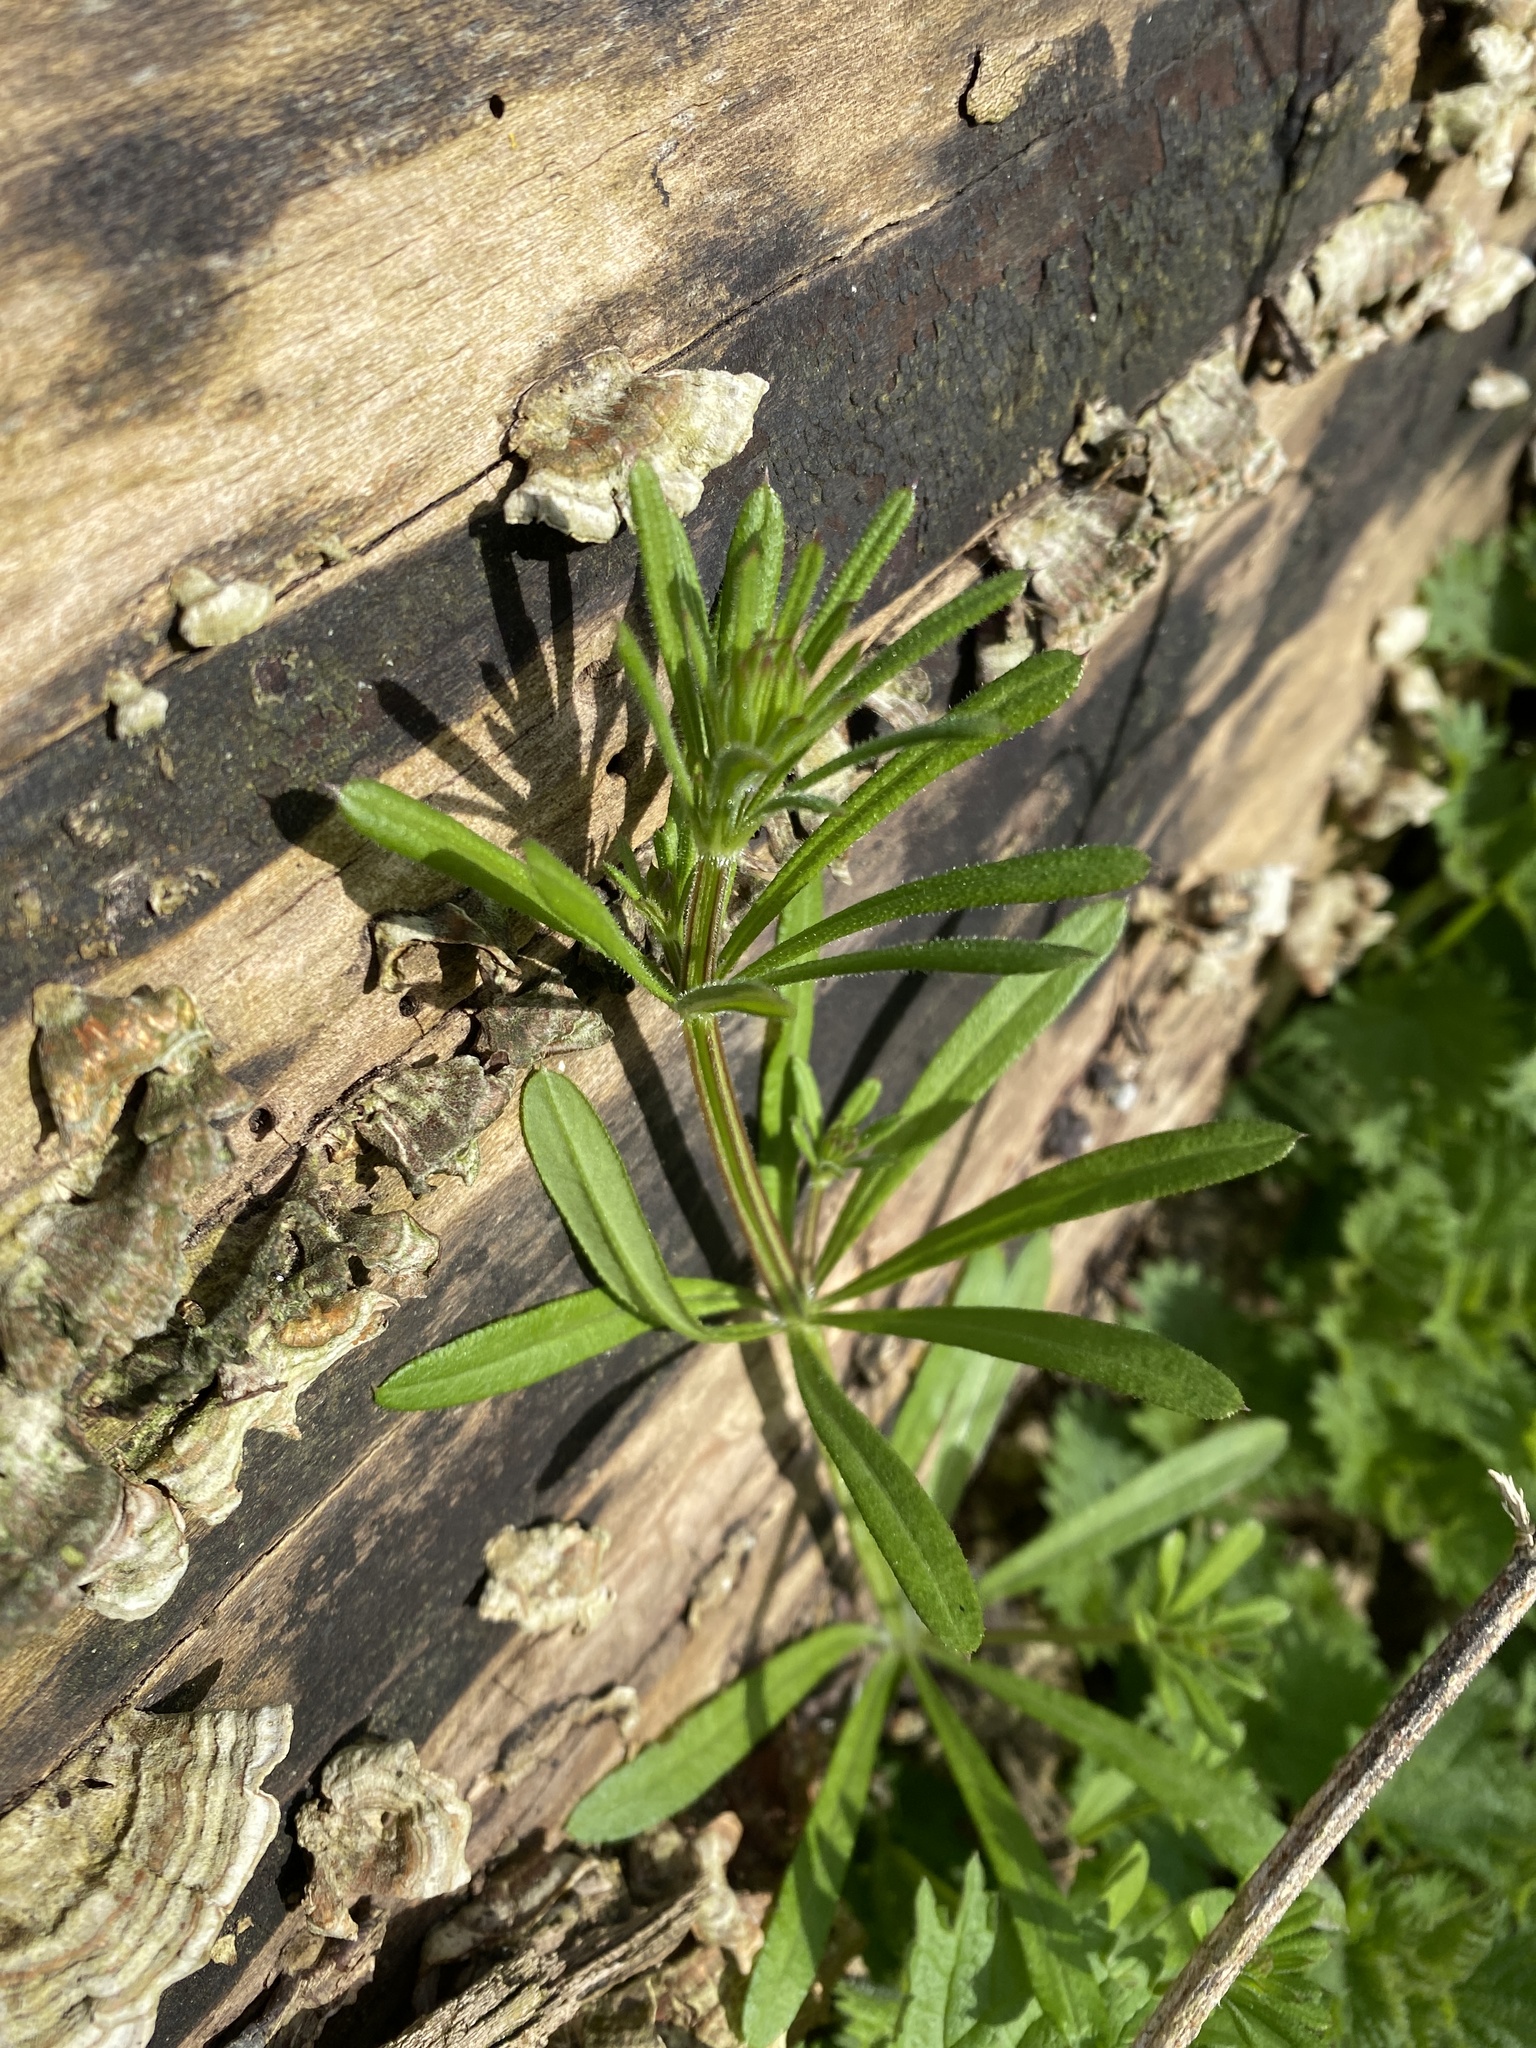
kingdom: Plantae
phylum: Tracheophyta
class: Magnoliopsida
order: Gentianales
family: Rubiaceae
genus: Galium
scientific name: Galium aparine
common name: Cleavers
